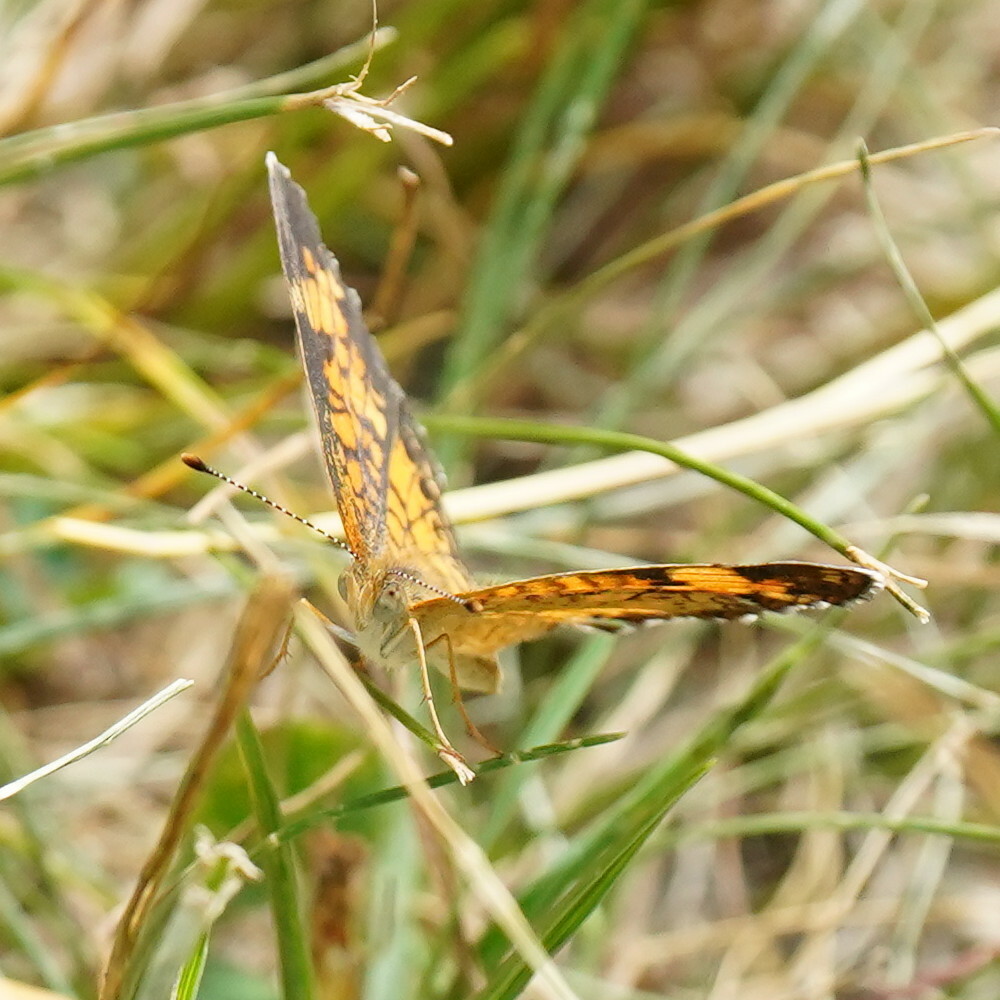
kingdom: Animalia
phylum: Arthropoda
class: Insecta
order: Lepidoptera
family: Nymphalidae
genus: Phyciodes
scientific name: Phyciodes tharos
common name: Pearl crescent
